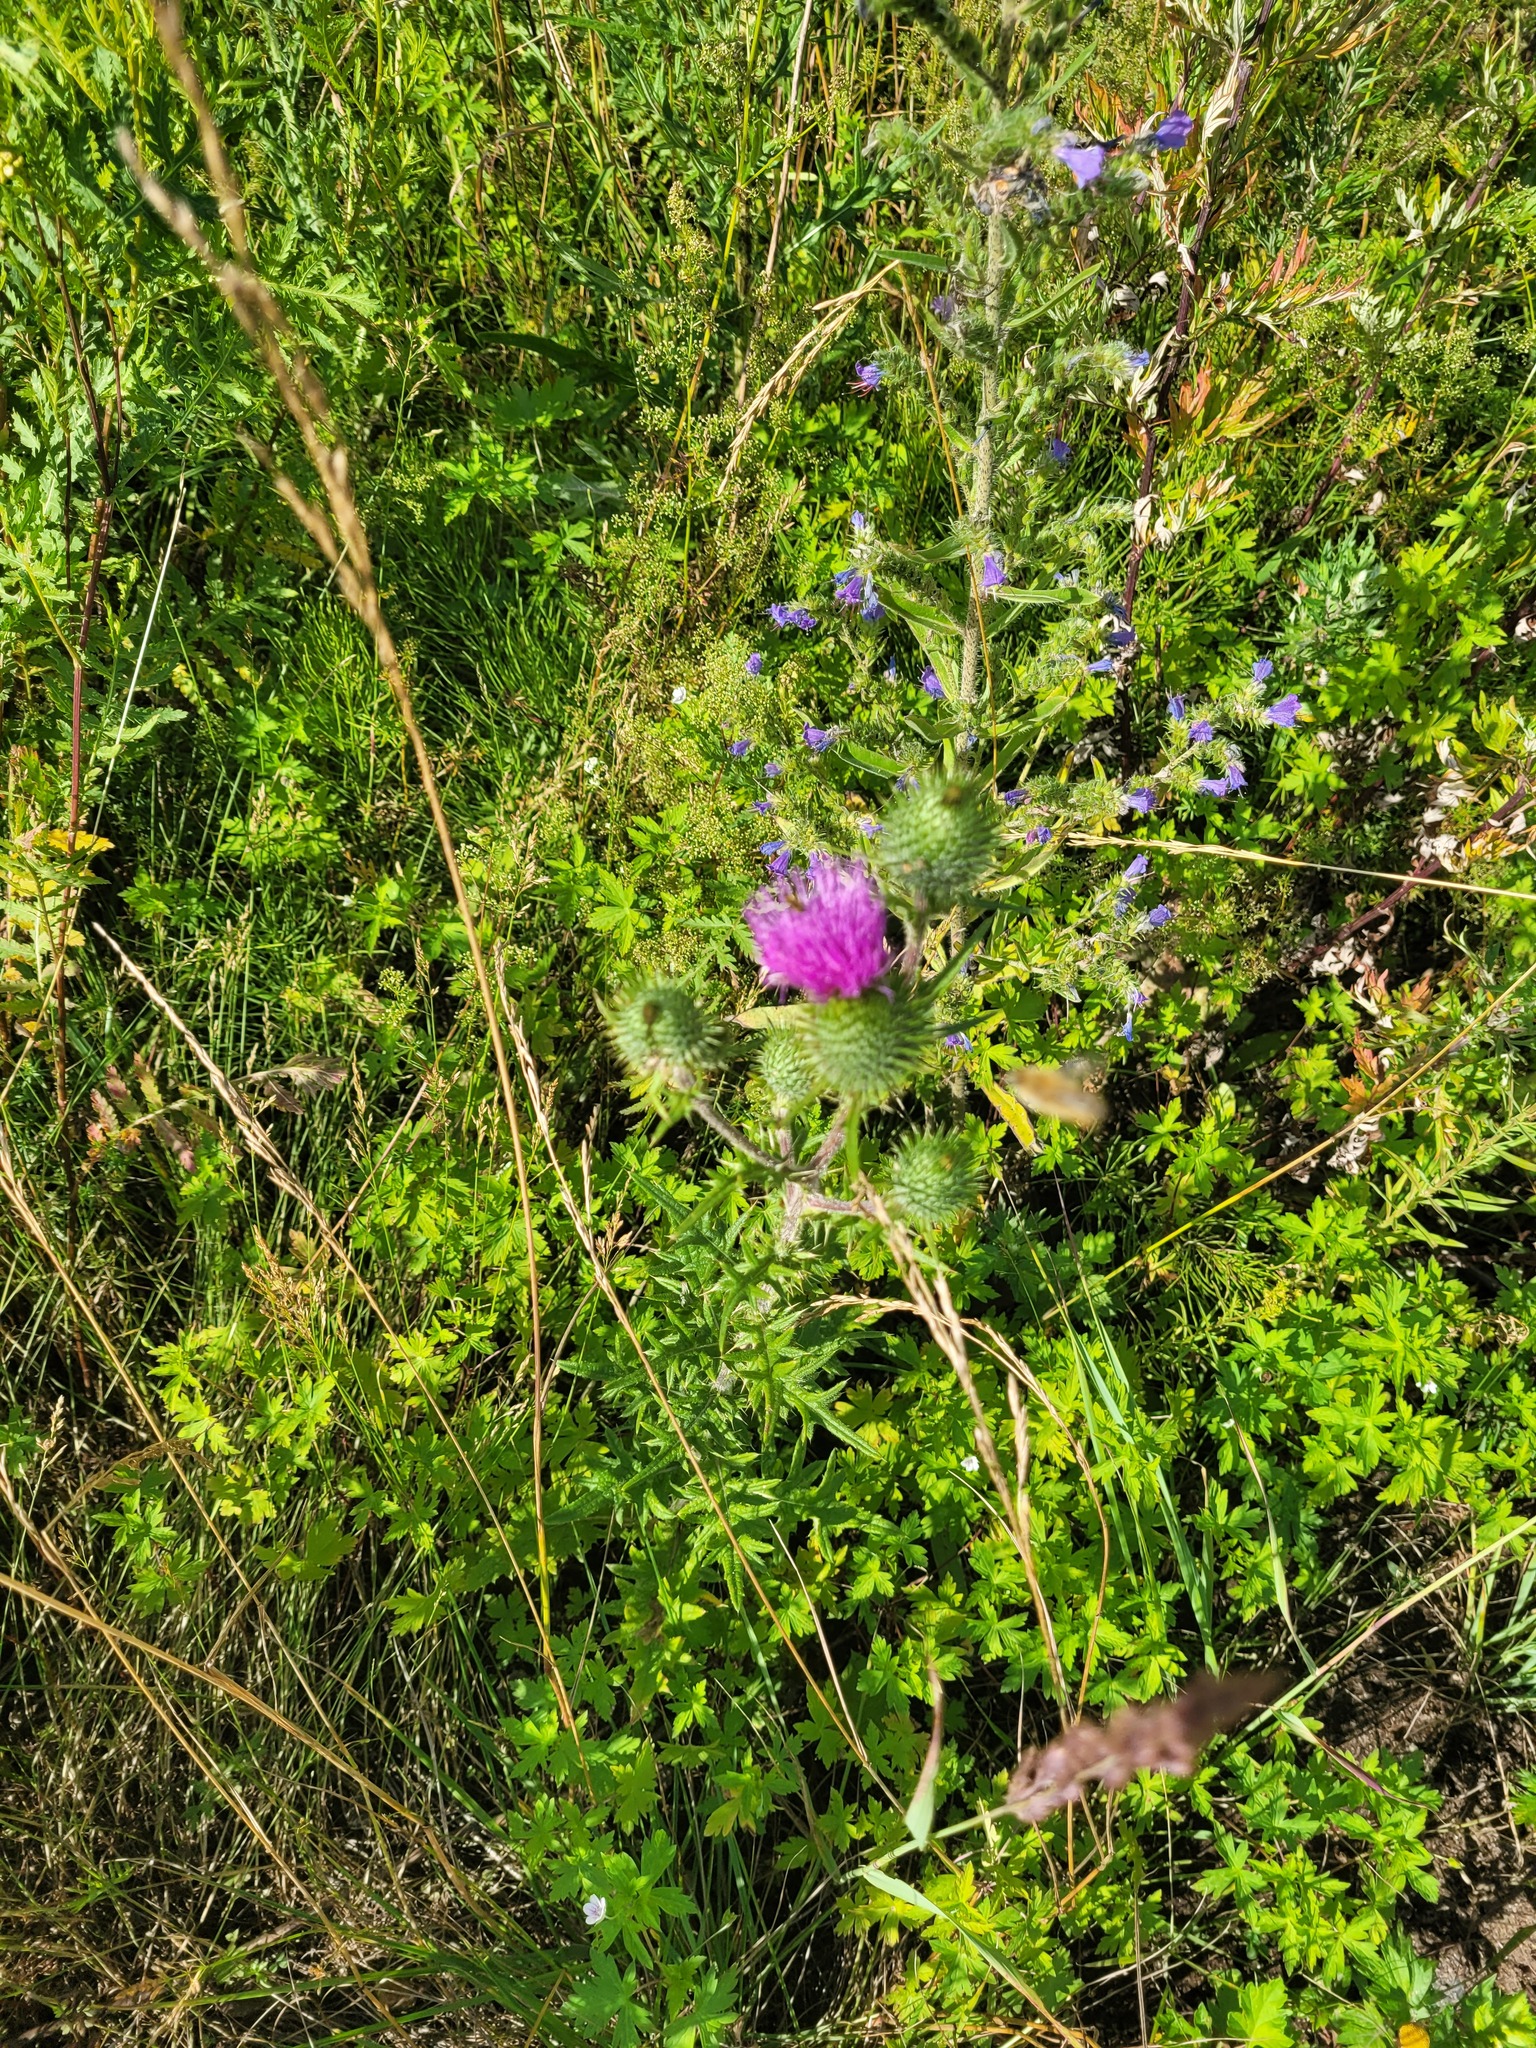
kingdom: Plantae
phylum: Tracheophyta
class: Magnoliopsida
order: Asterales
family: Asteraceae
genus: Cirsium
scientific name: Cirsium vulgare
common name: Bull thistle
